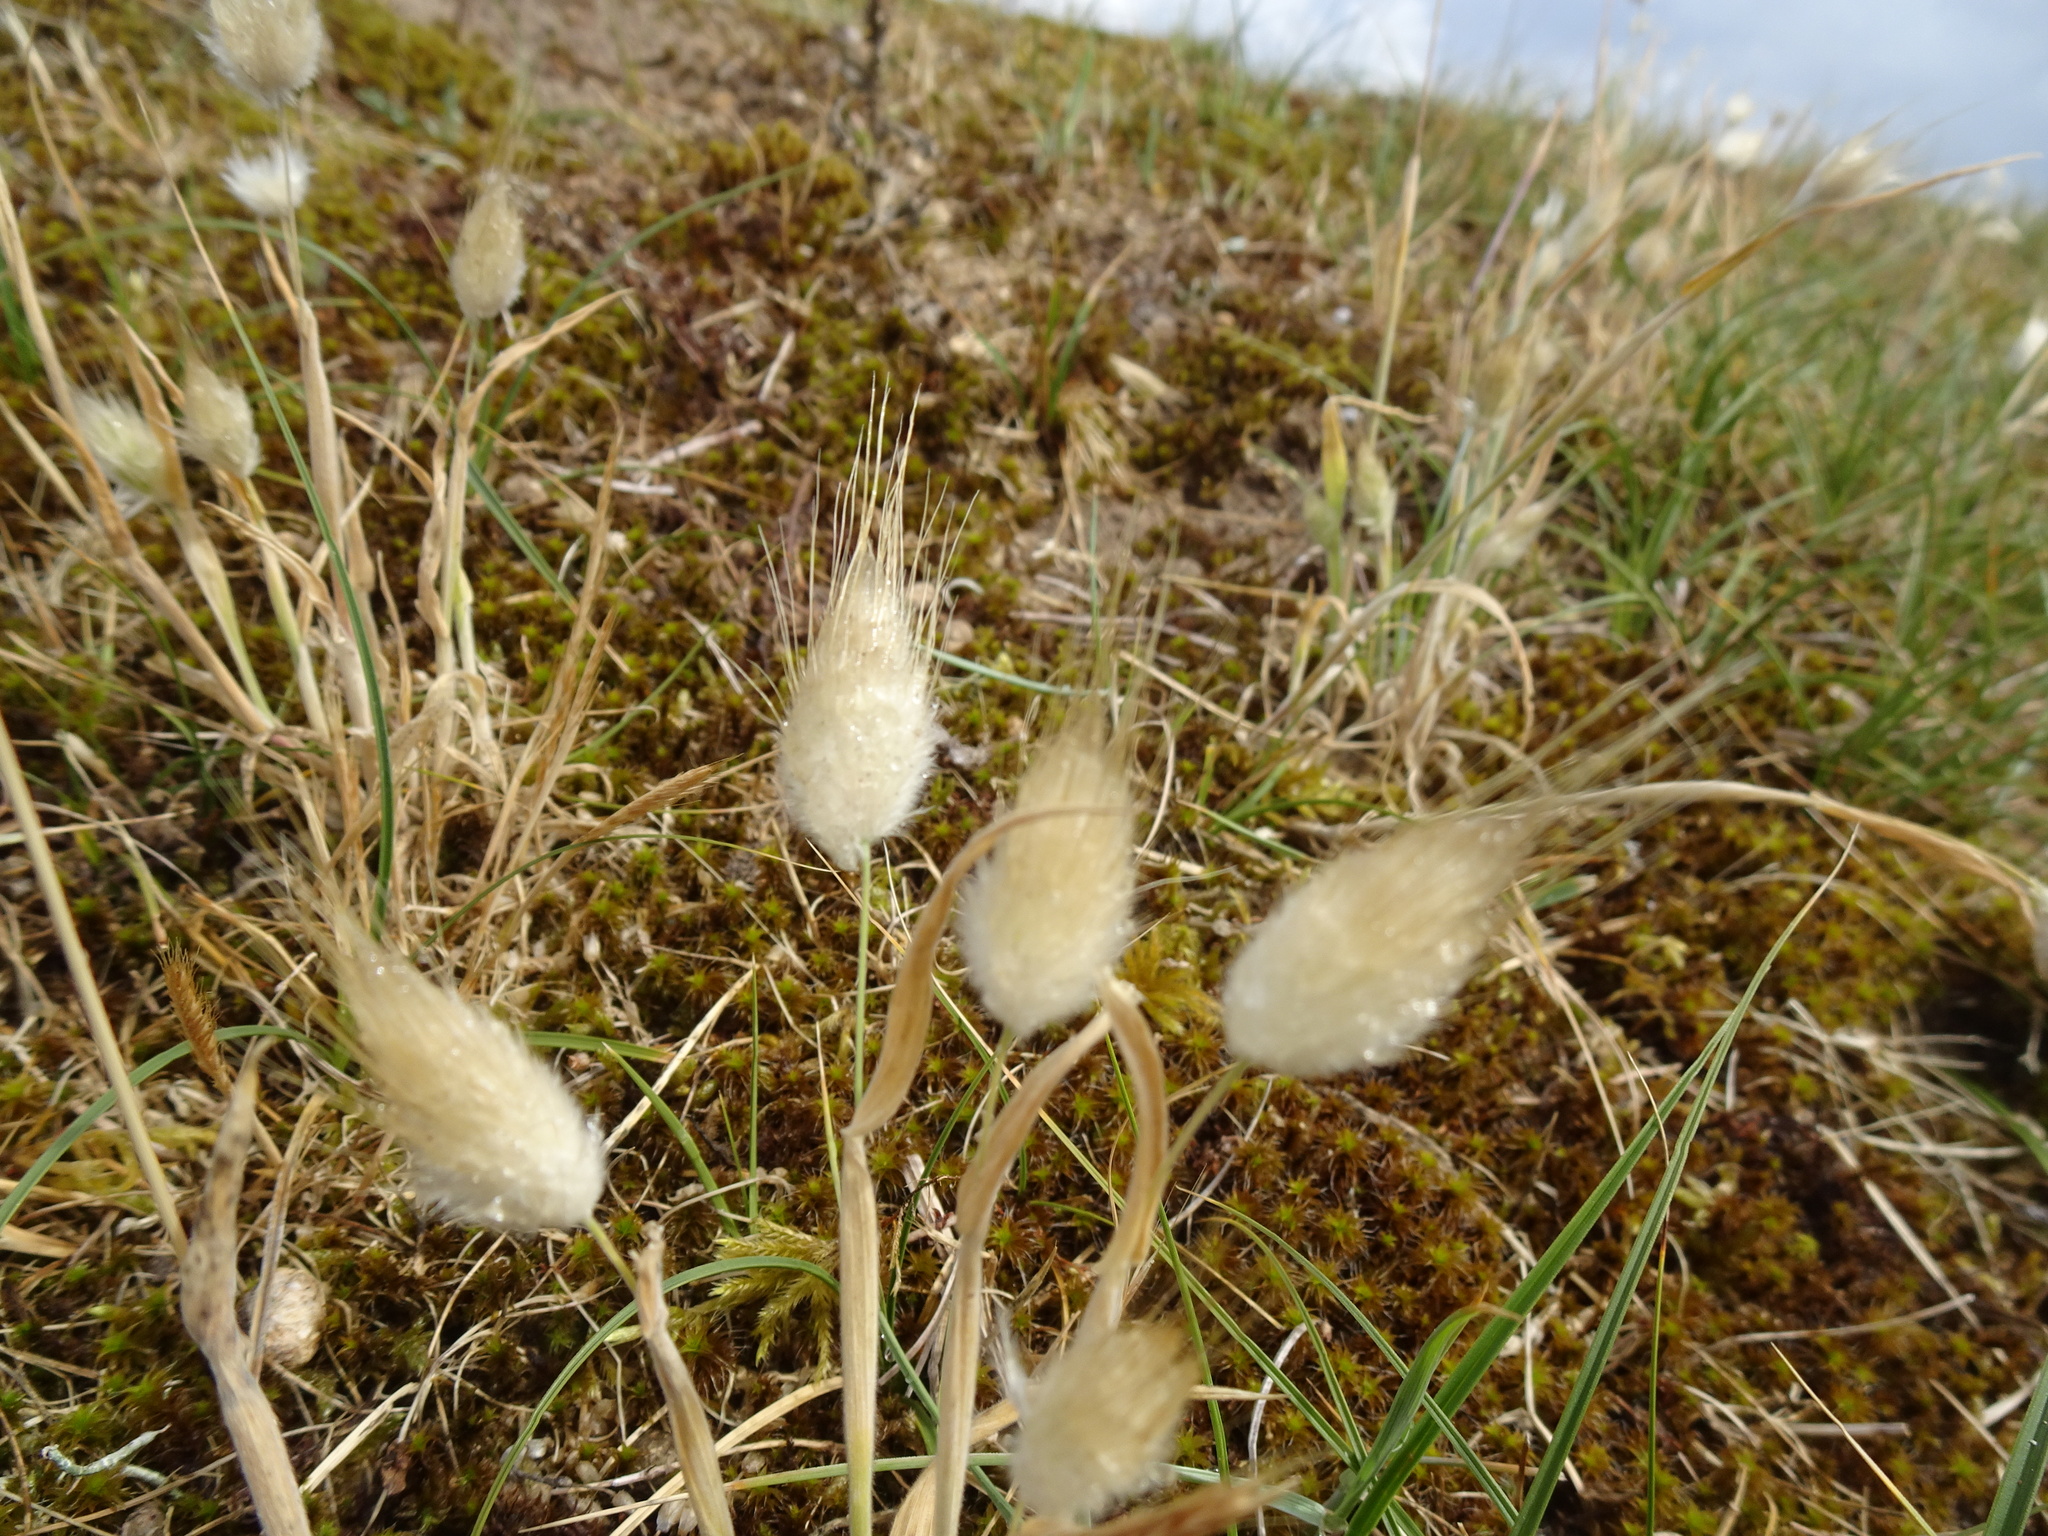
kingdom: Plantae
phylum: Tracheophyta
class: Liliopsida
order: Poales
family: Poaceae
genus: Lagurus
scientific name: Lagurus ovatus
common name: Hare's-tail
